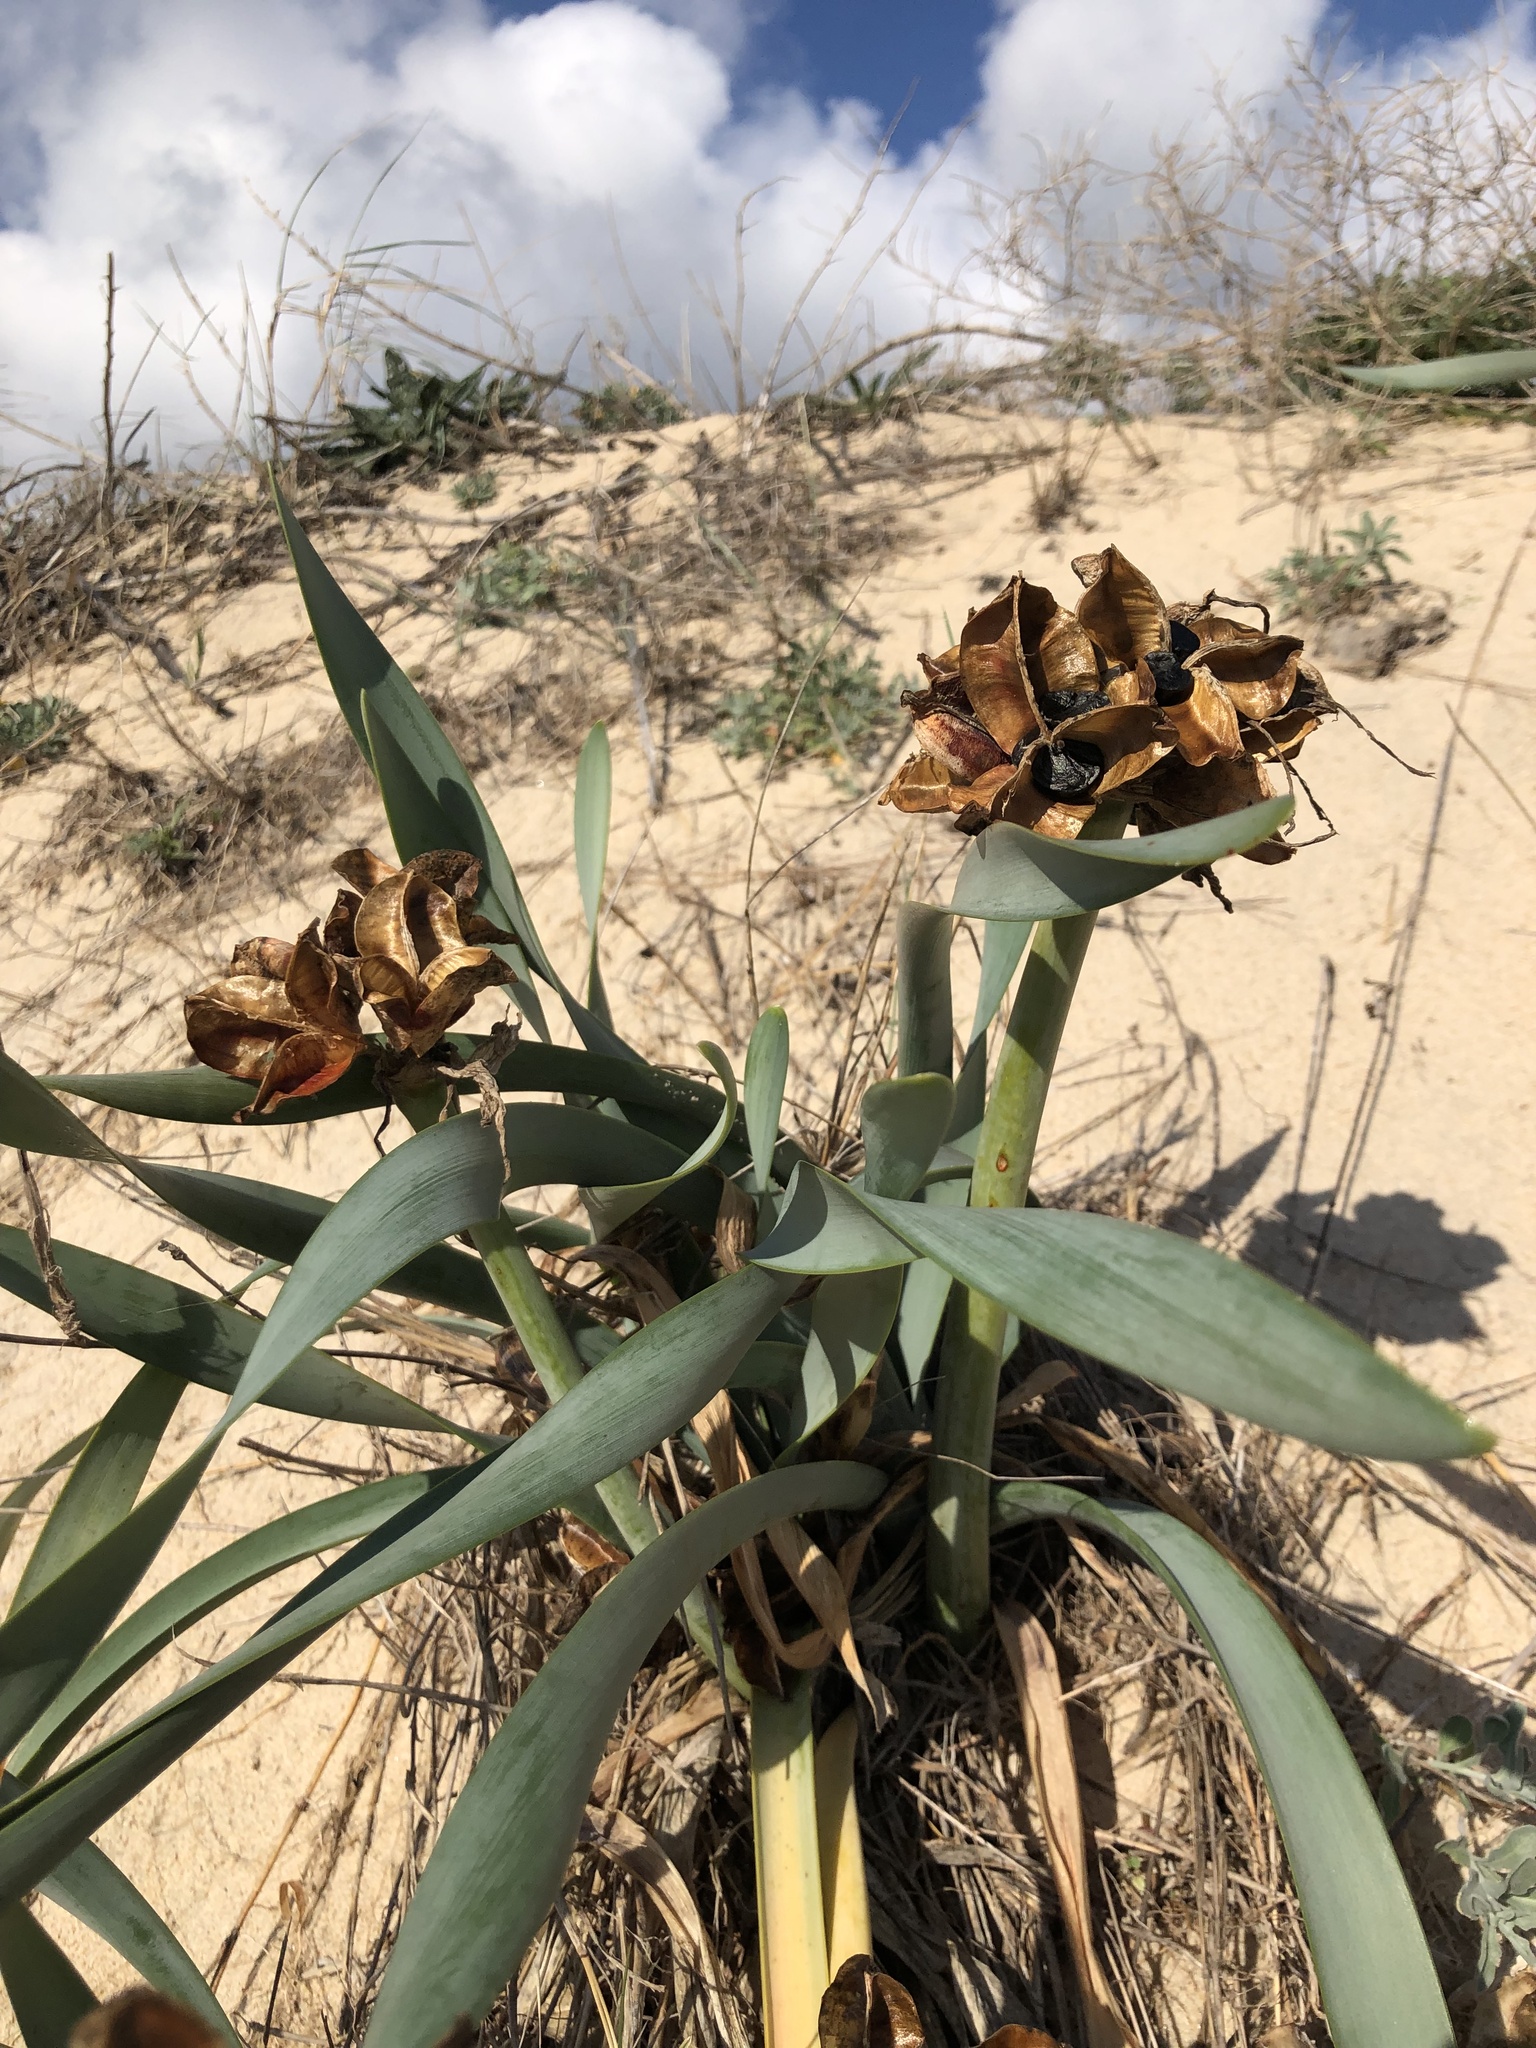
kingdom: Plantae
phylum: Tracheophyta
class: Liliopsida
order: Asparagales
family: Amaryllidaceae
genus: Pancratium
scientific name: Pancratium maritimum
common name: Sea-daffodil
